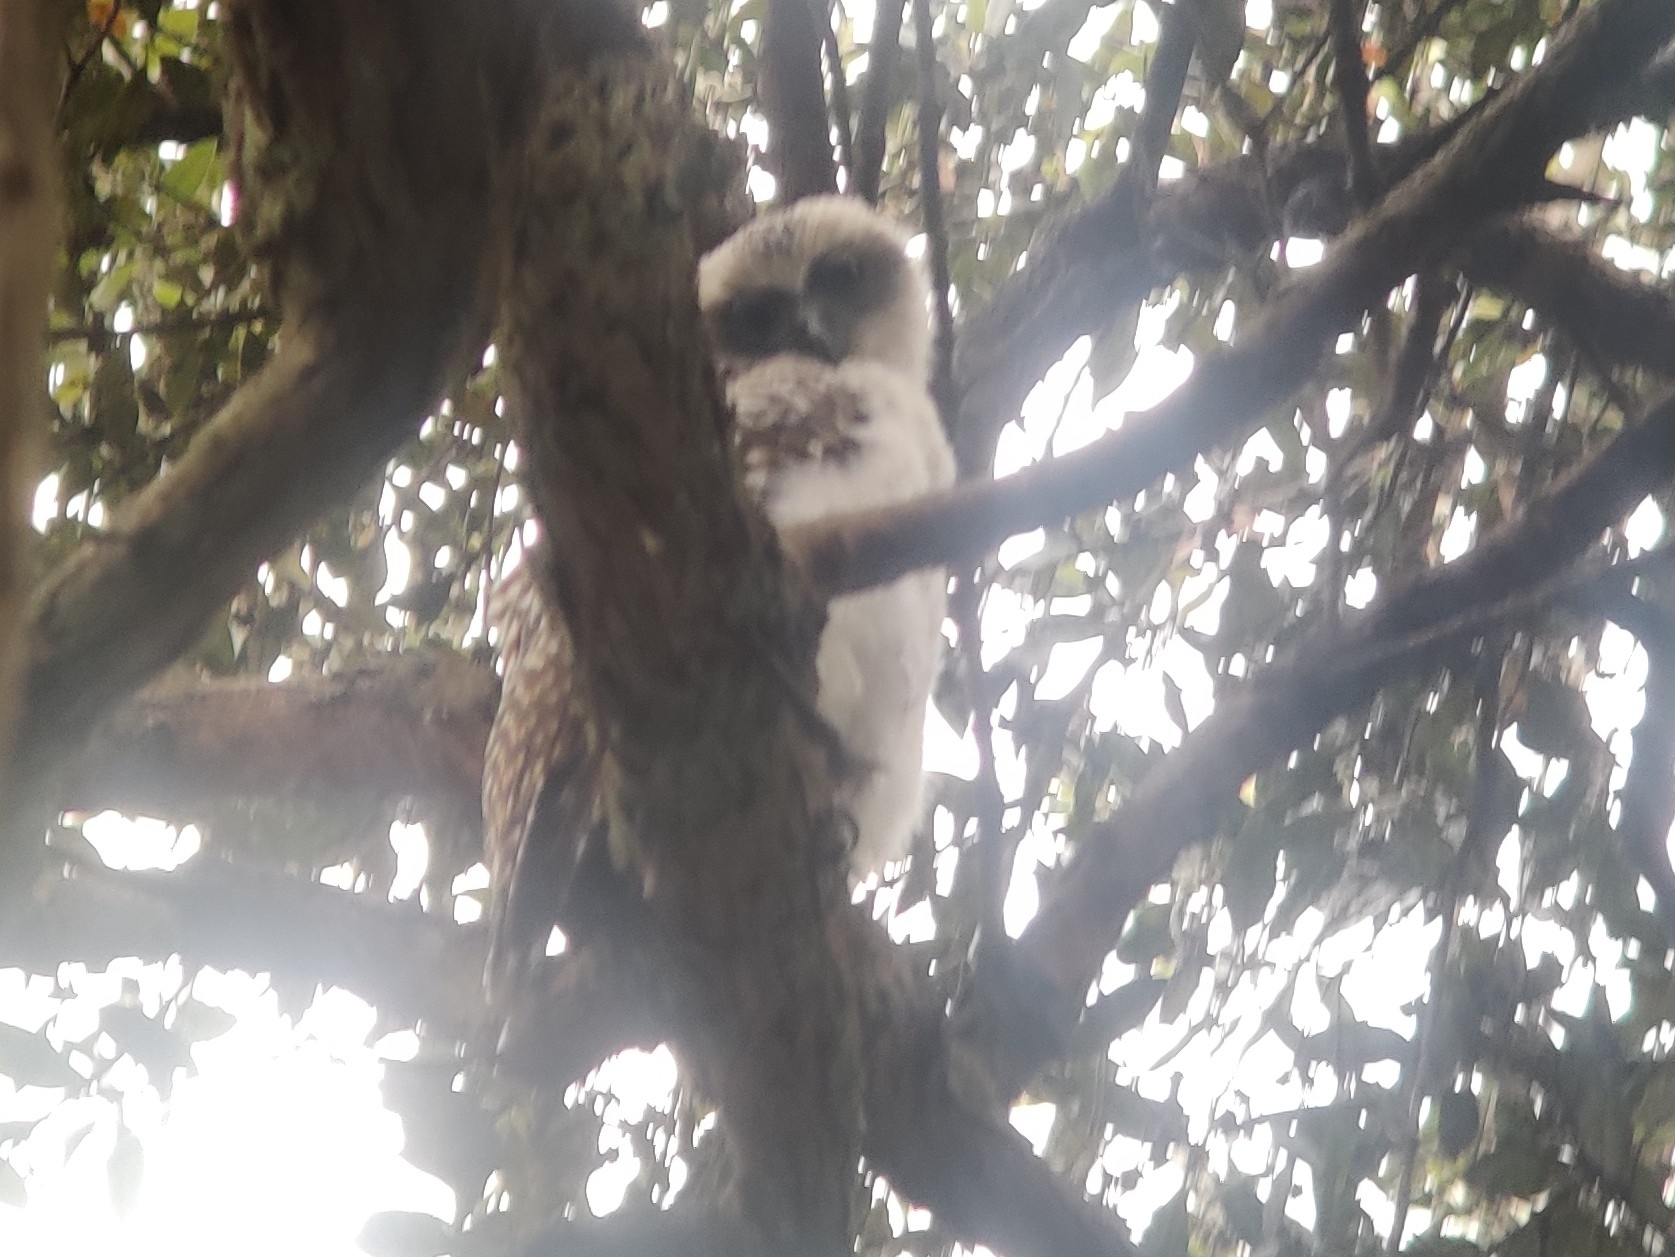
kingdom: Animalia
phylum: Chordata
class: Aves
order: Strigiformes
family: Strigidae
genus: Ninox
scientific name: Ninox strenua
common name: Powerful owl
